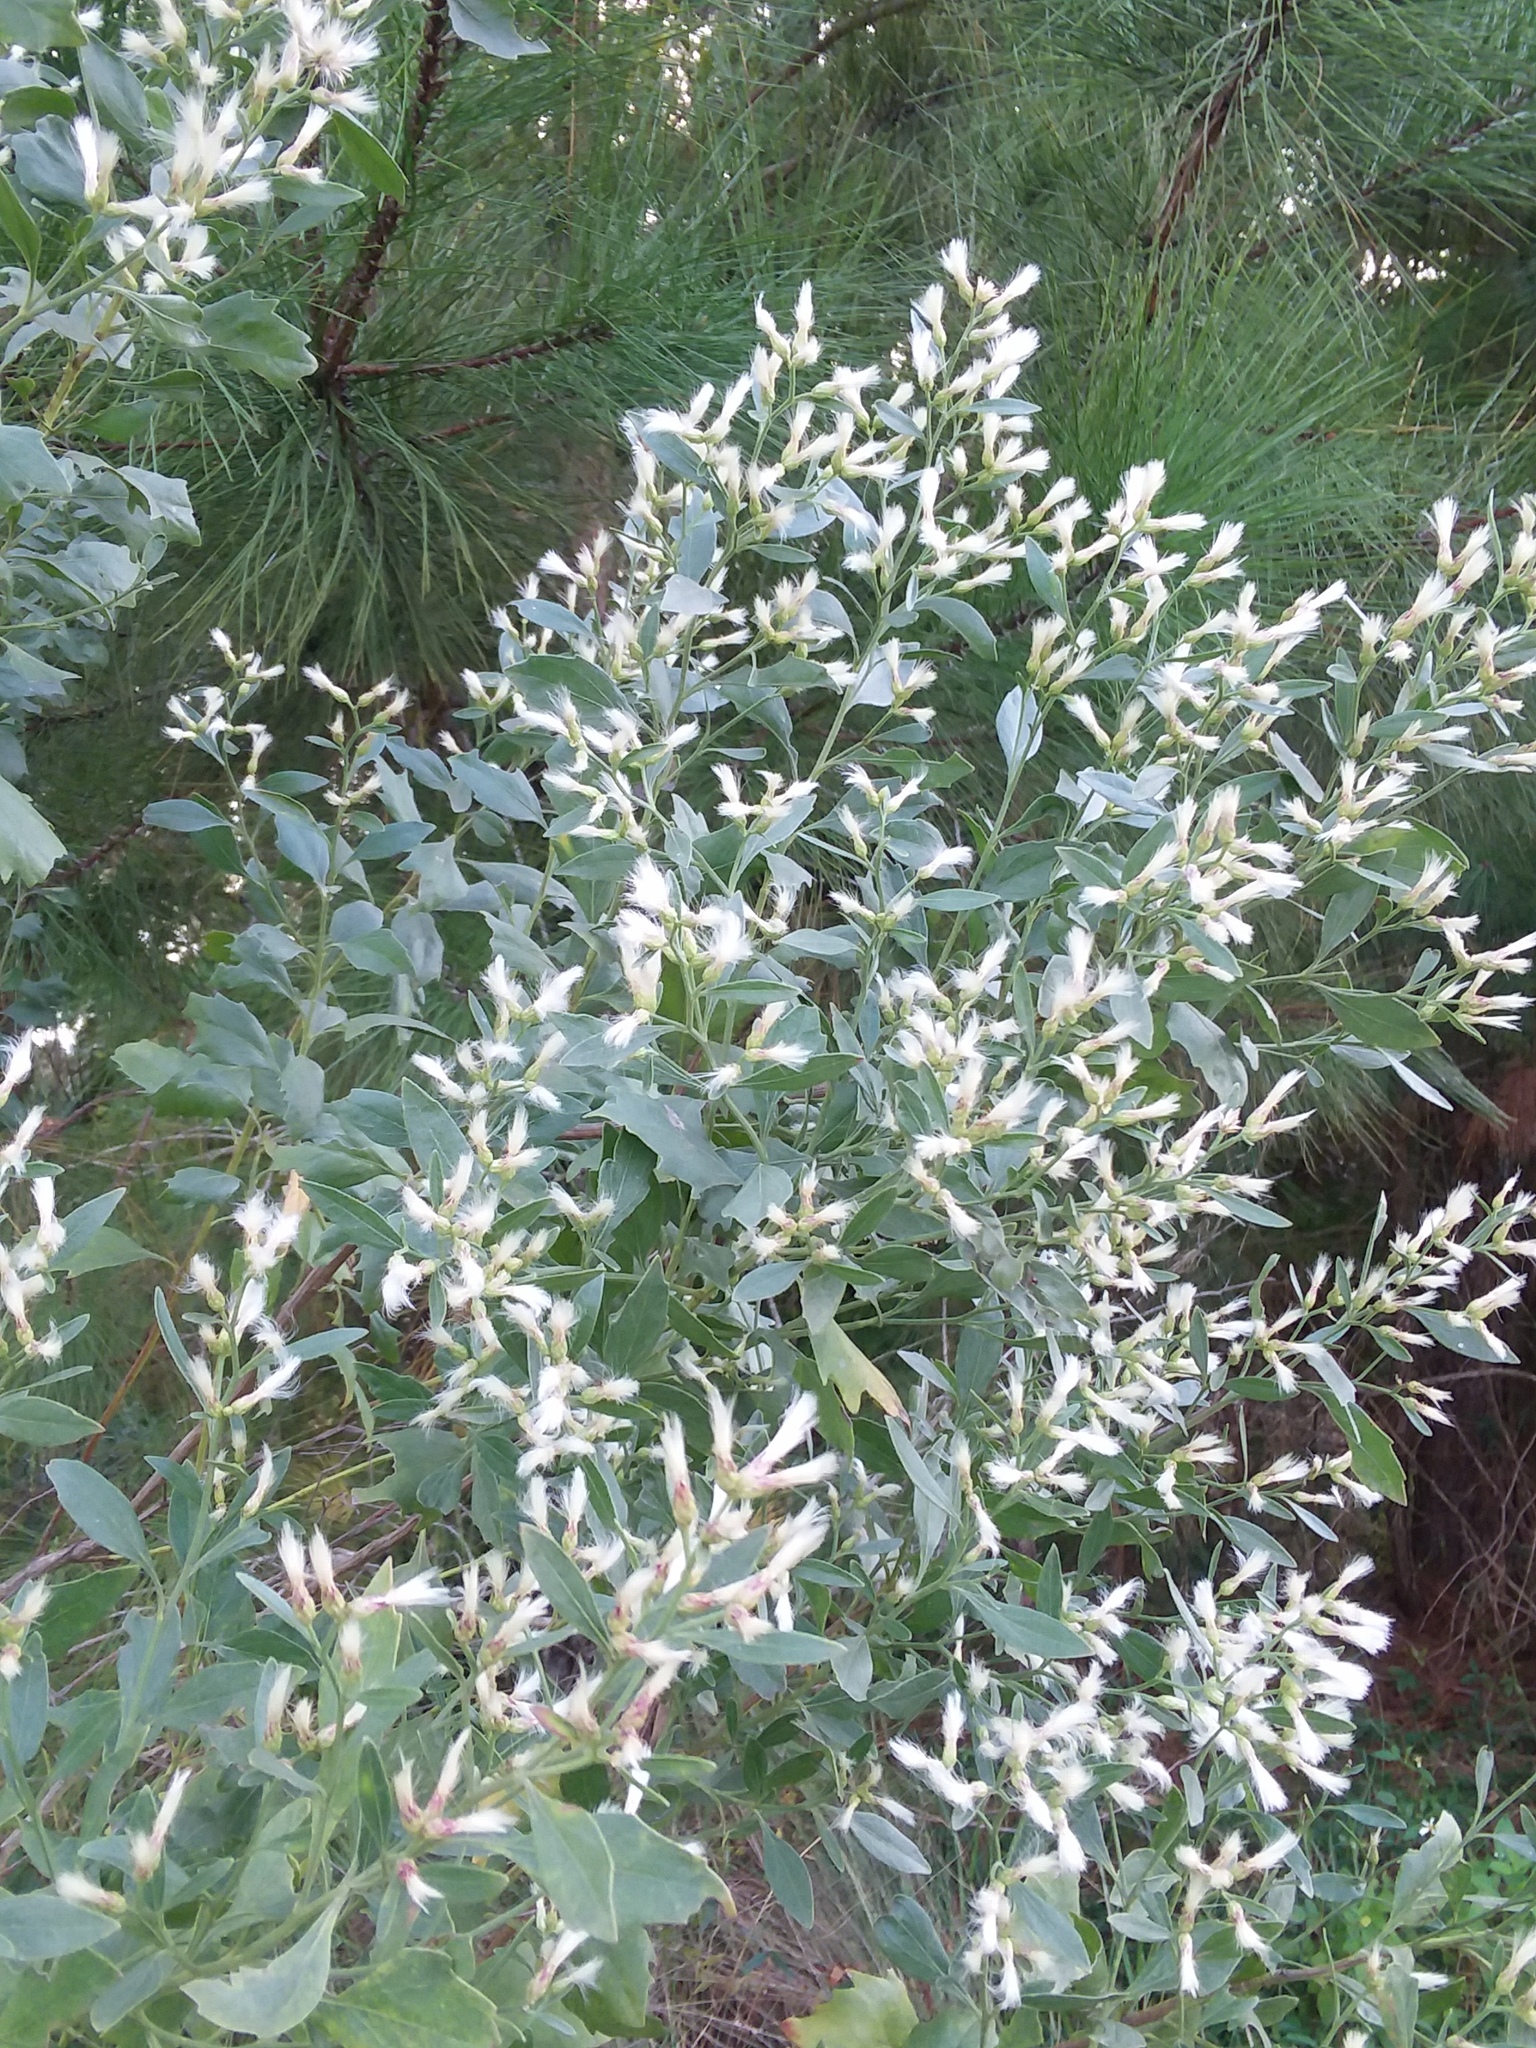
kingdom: Plantae
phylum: Tracheophyta
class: Magnoliopsida
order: Asterales
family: Asteraceae
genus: Baccharis
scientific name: Baccharis halimifolia
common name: Eastern baccharis
